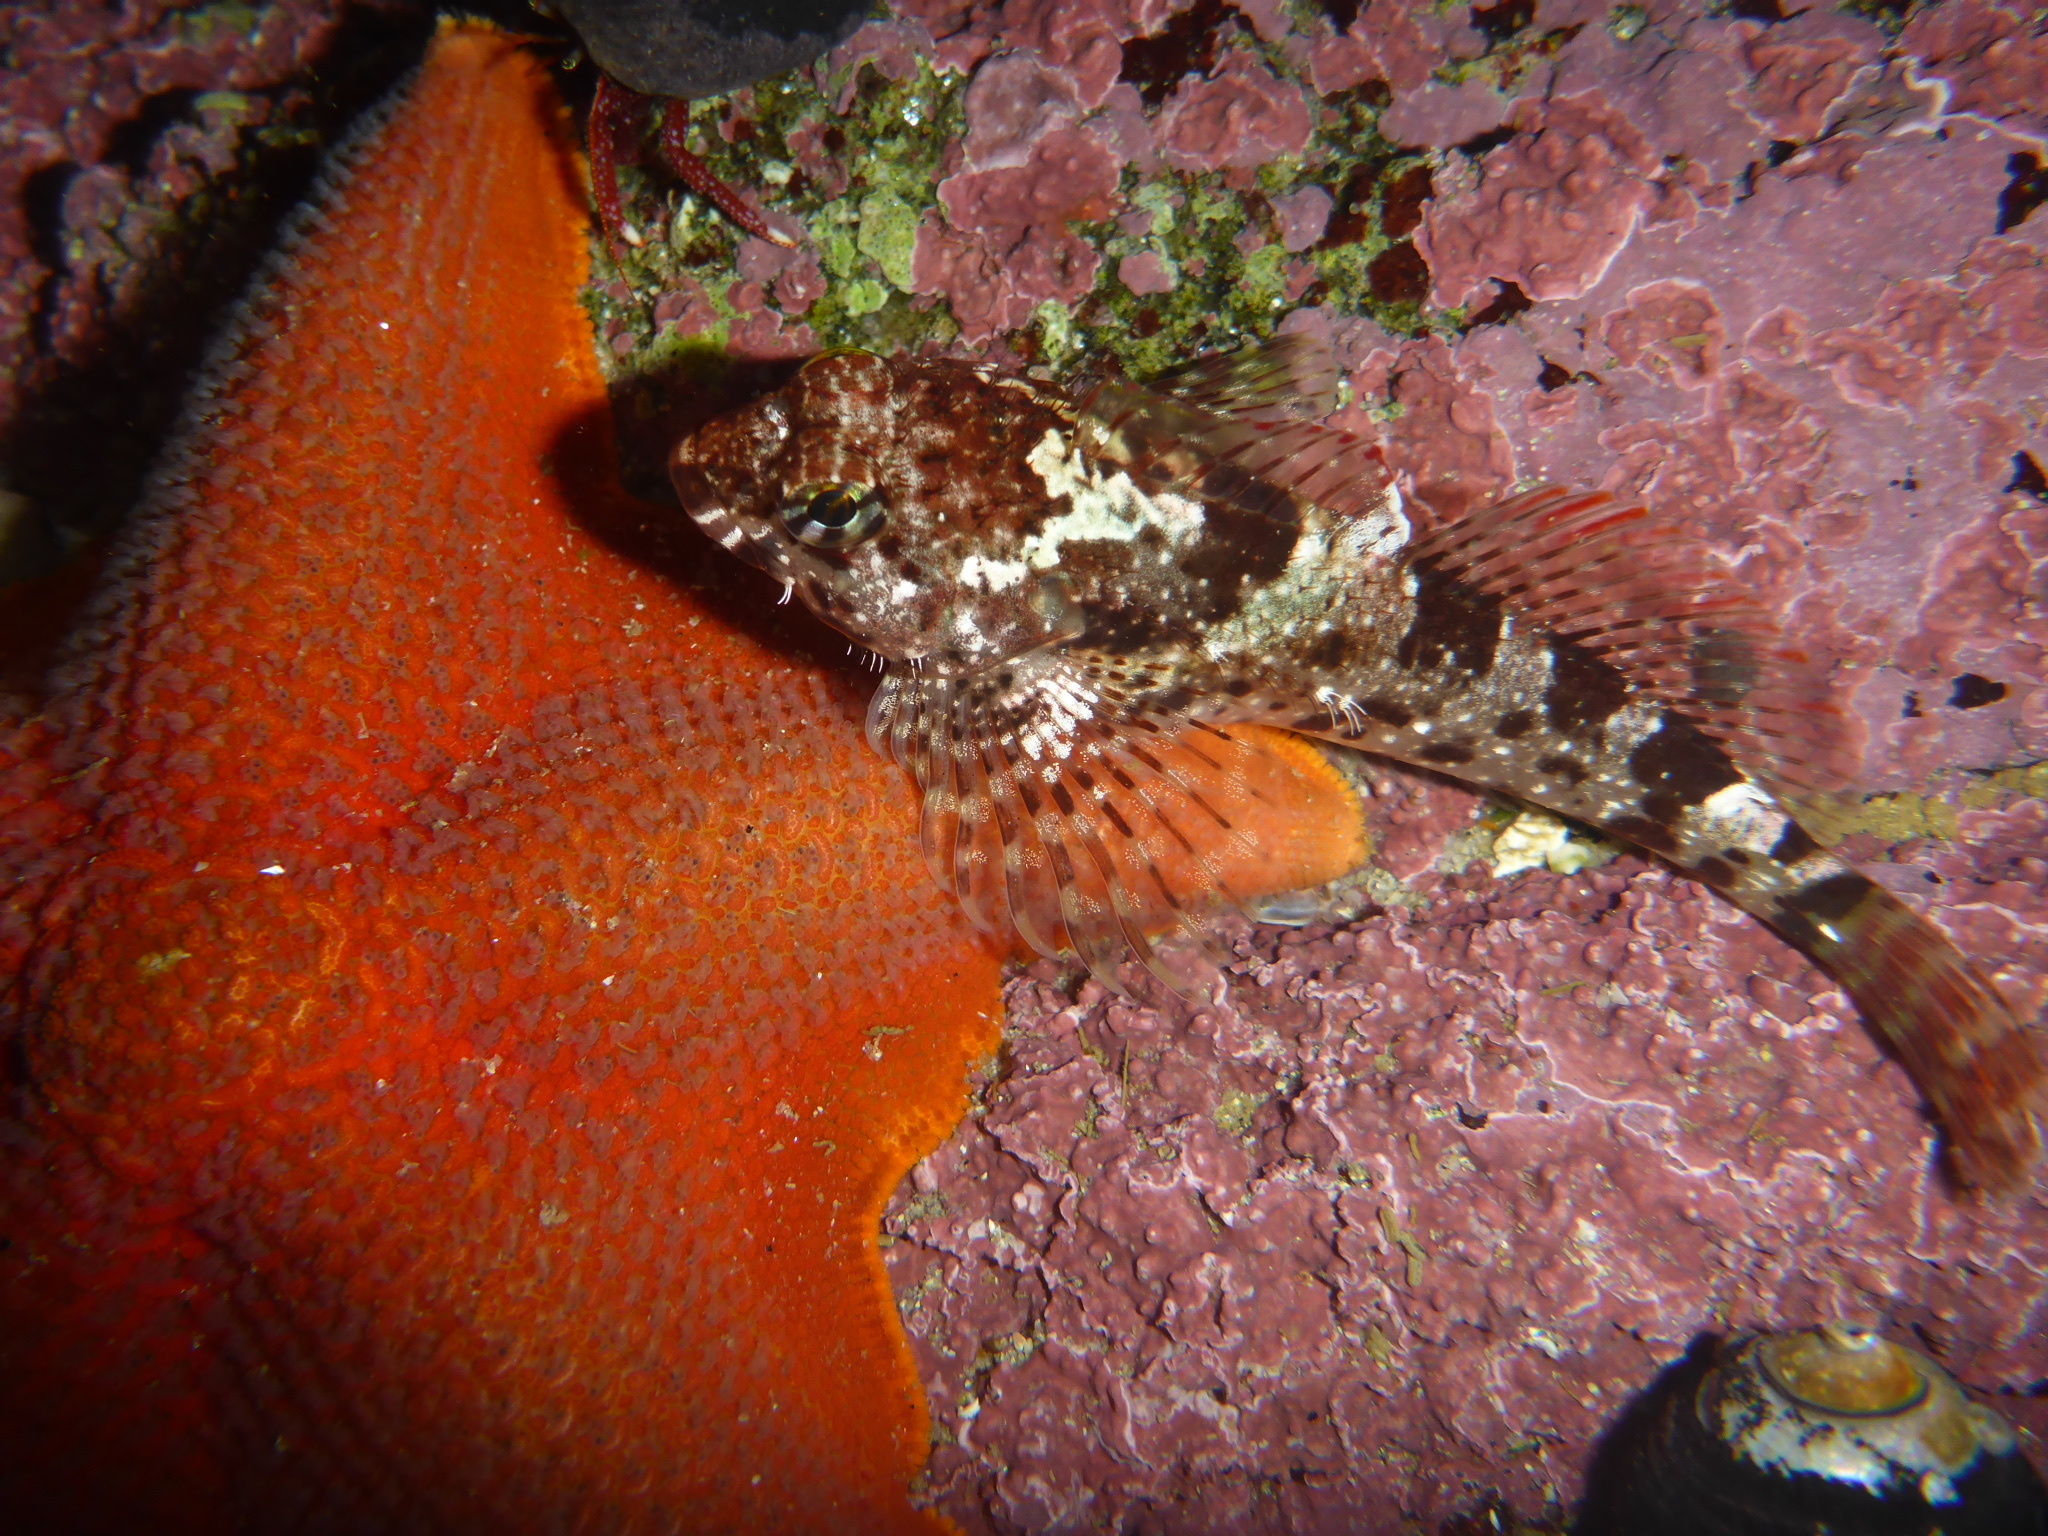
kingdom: Animalia
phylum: Chordata
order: Scorpaeniformes
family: Cottidae
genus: Clinocottus
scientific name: Clinocottus analis
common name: Woolly sculpin
